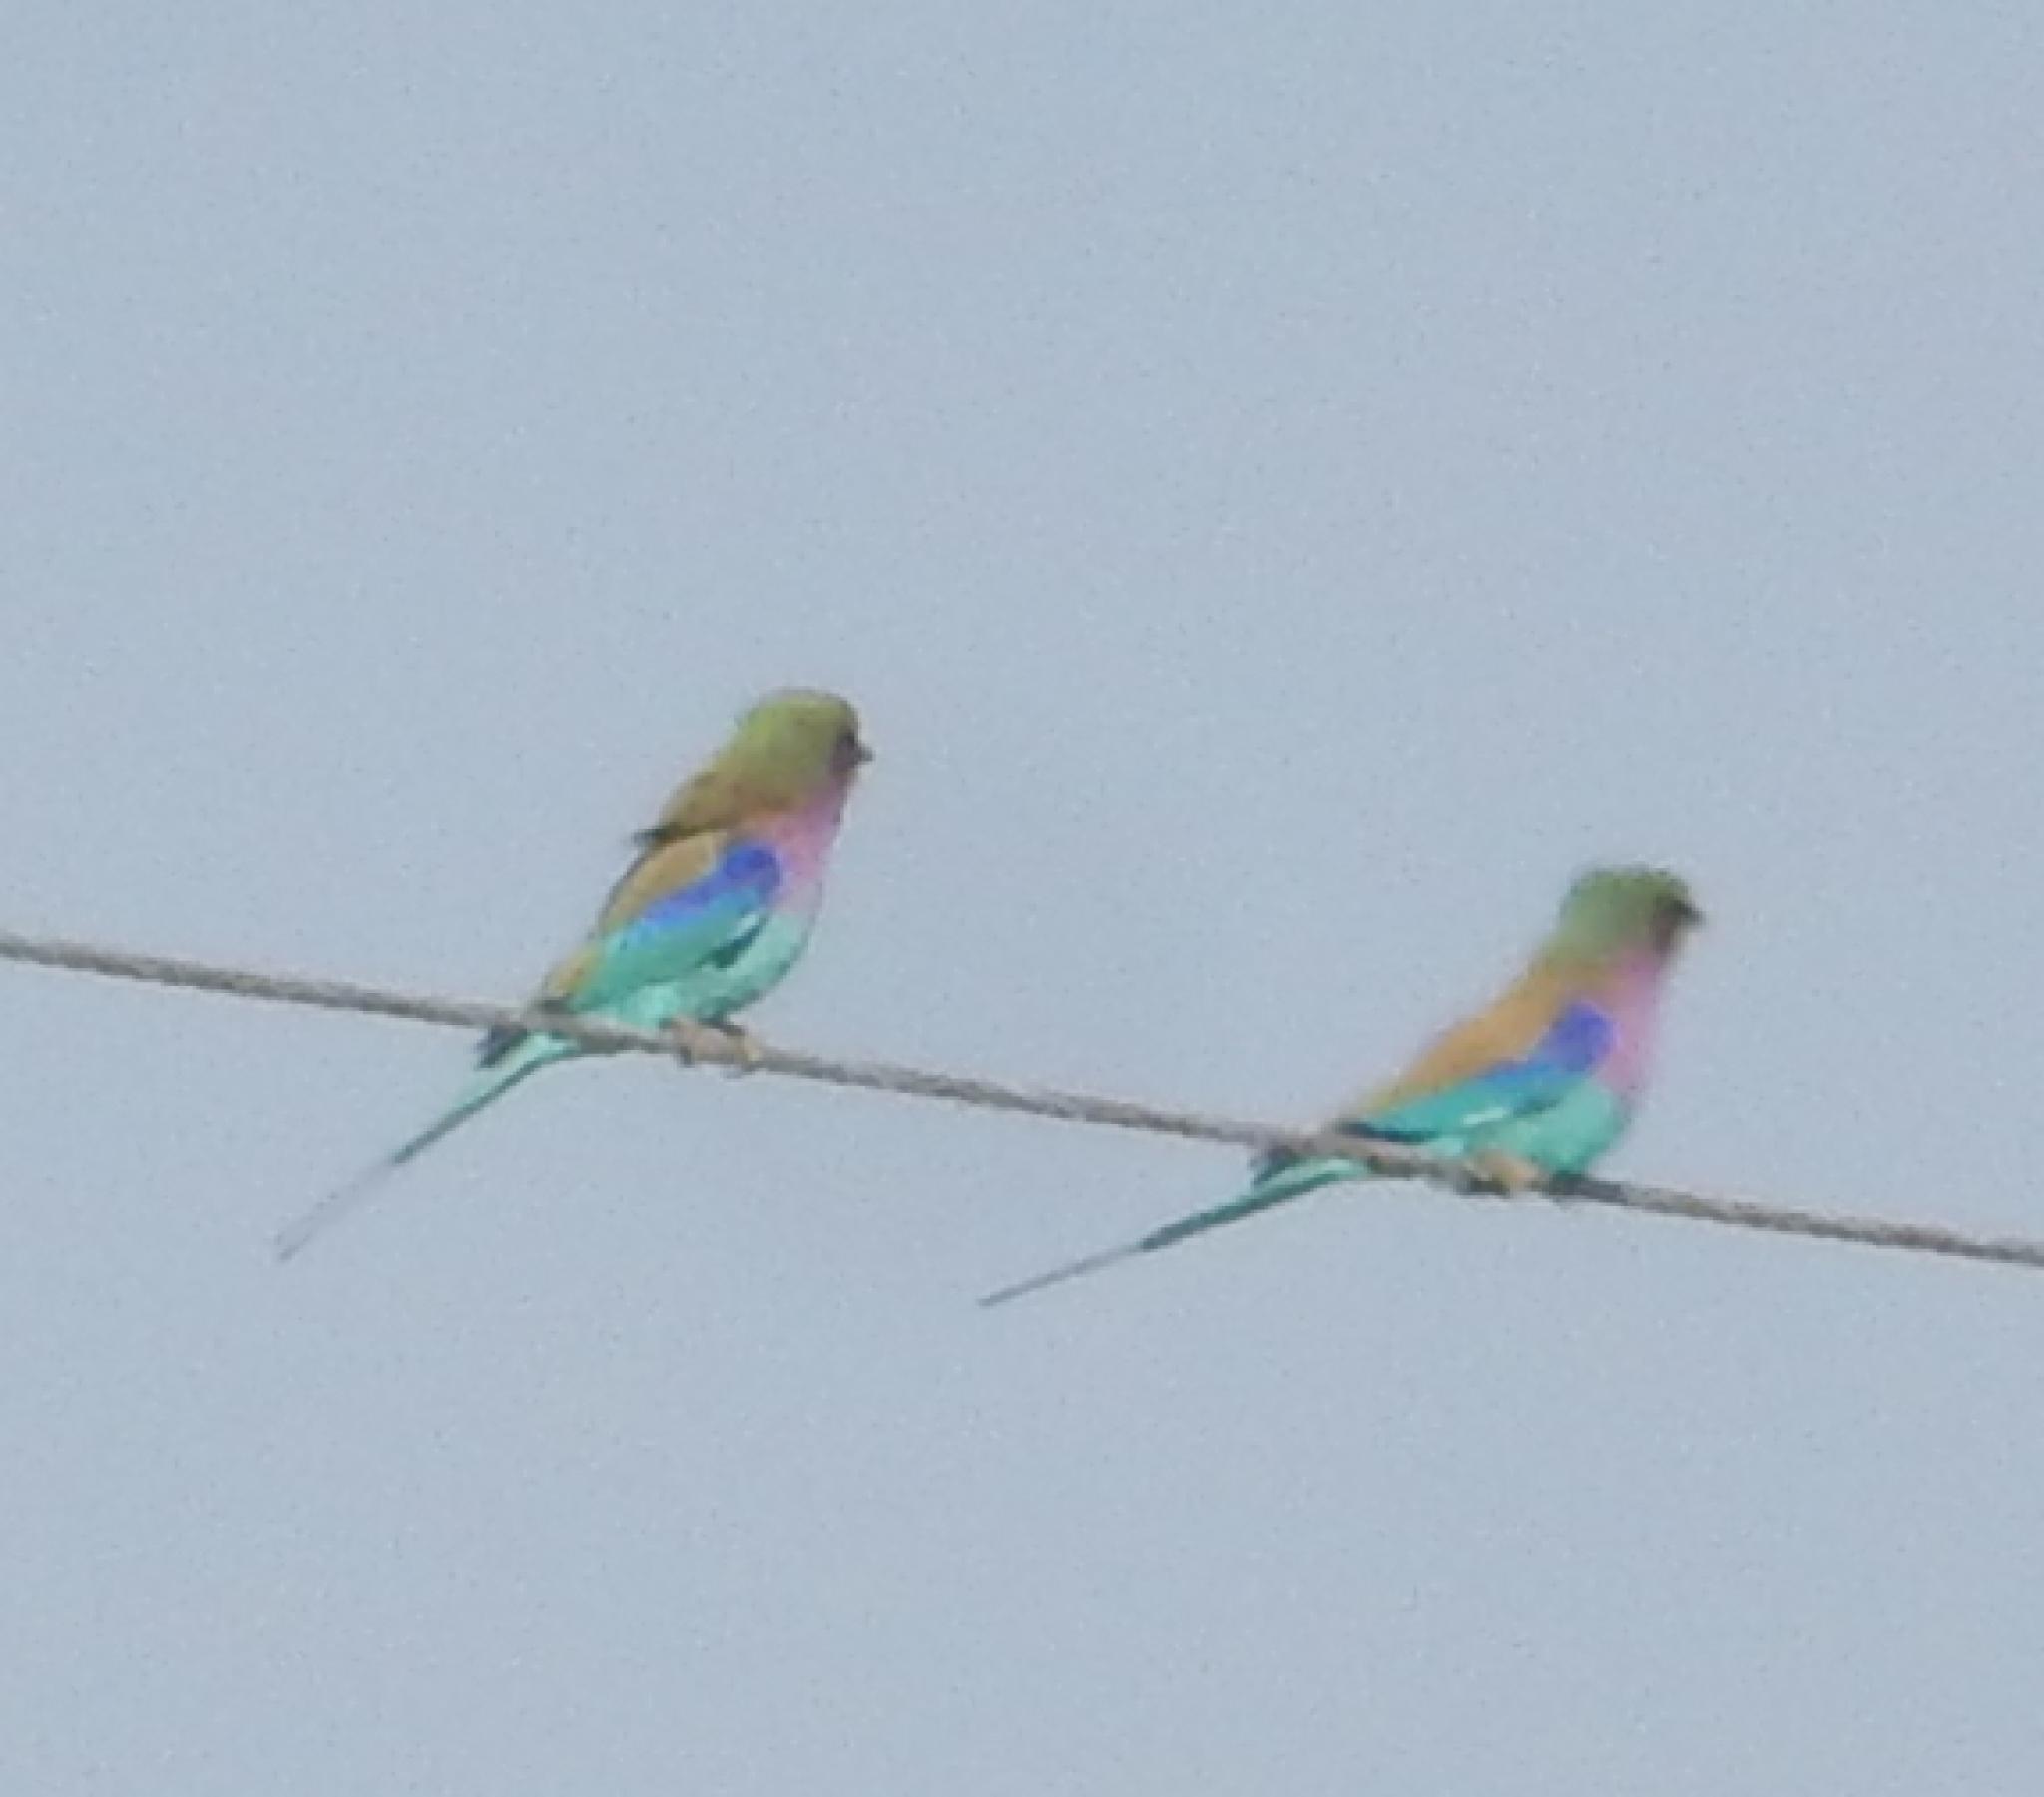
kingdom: Animalia
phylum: Chordata
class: Aves
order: Coraciiformes
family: Coraciidae
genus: Coracias
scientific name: Coracias caudatus
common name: Lilac-breasted roller
